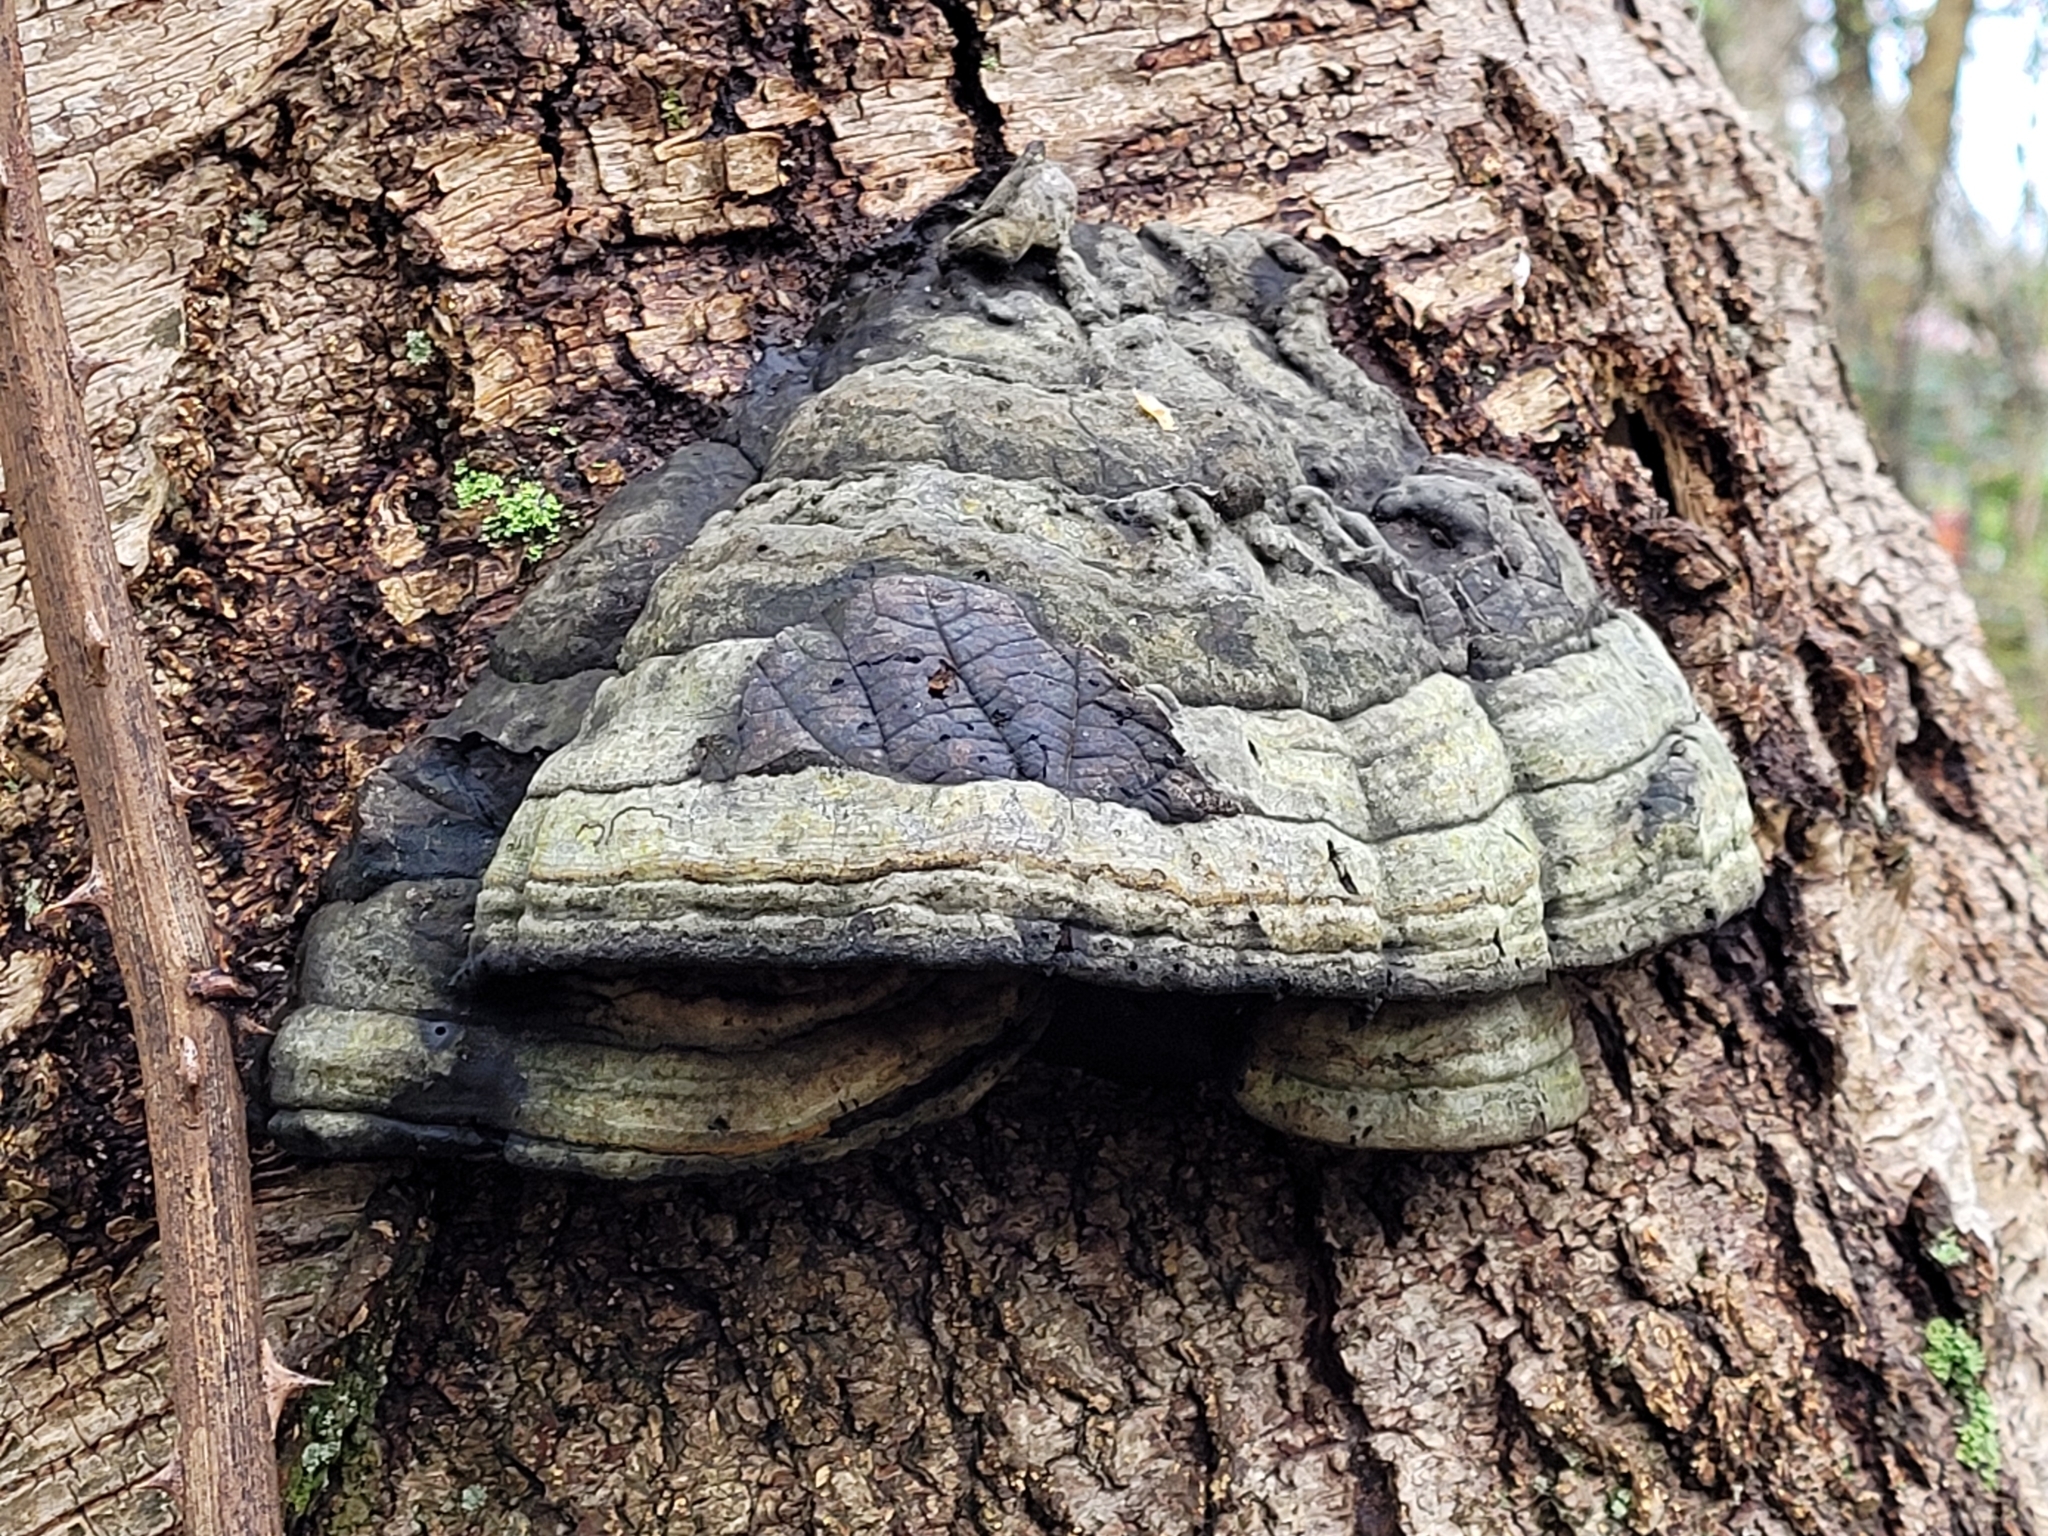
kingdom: Fungi
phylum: Basidiomycota
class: Agaricomycetes
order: Polyporales
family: Polyporaceae
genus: Fomes
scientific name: Fomes fomentarius
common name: Hoof fungus
